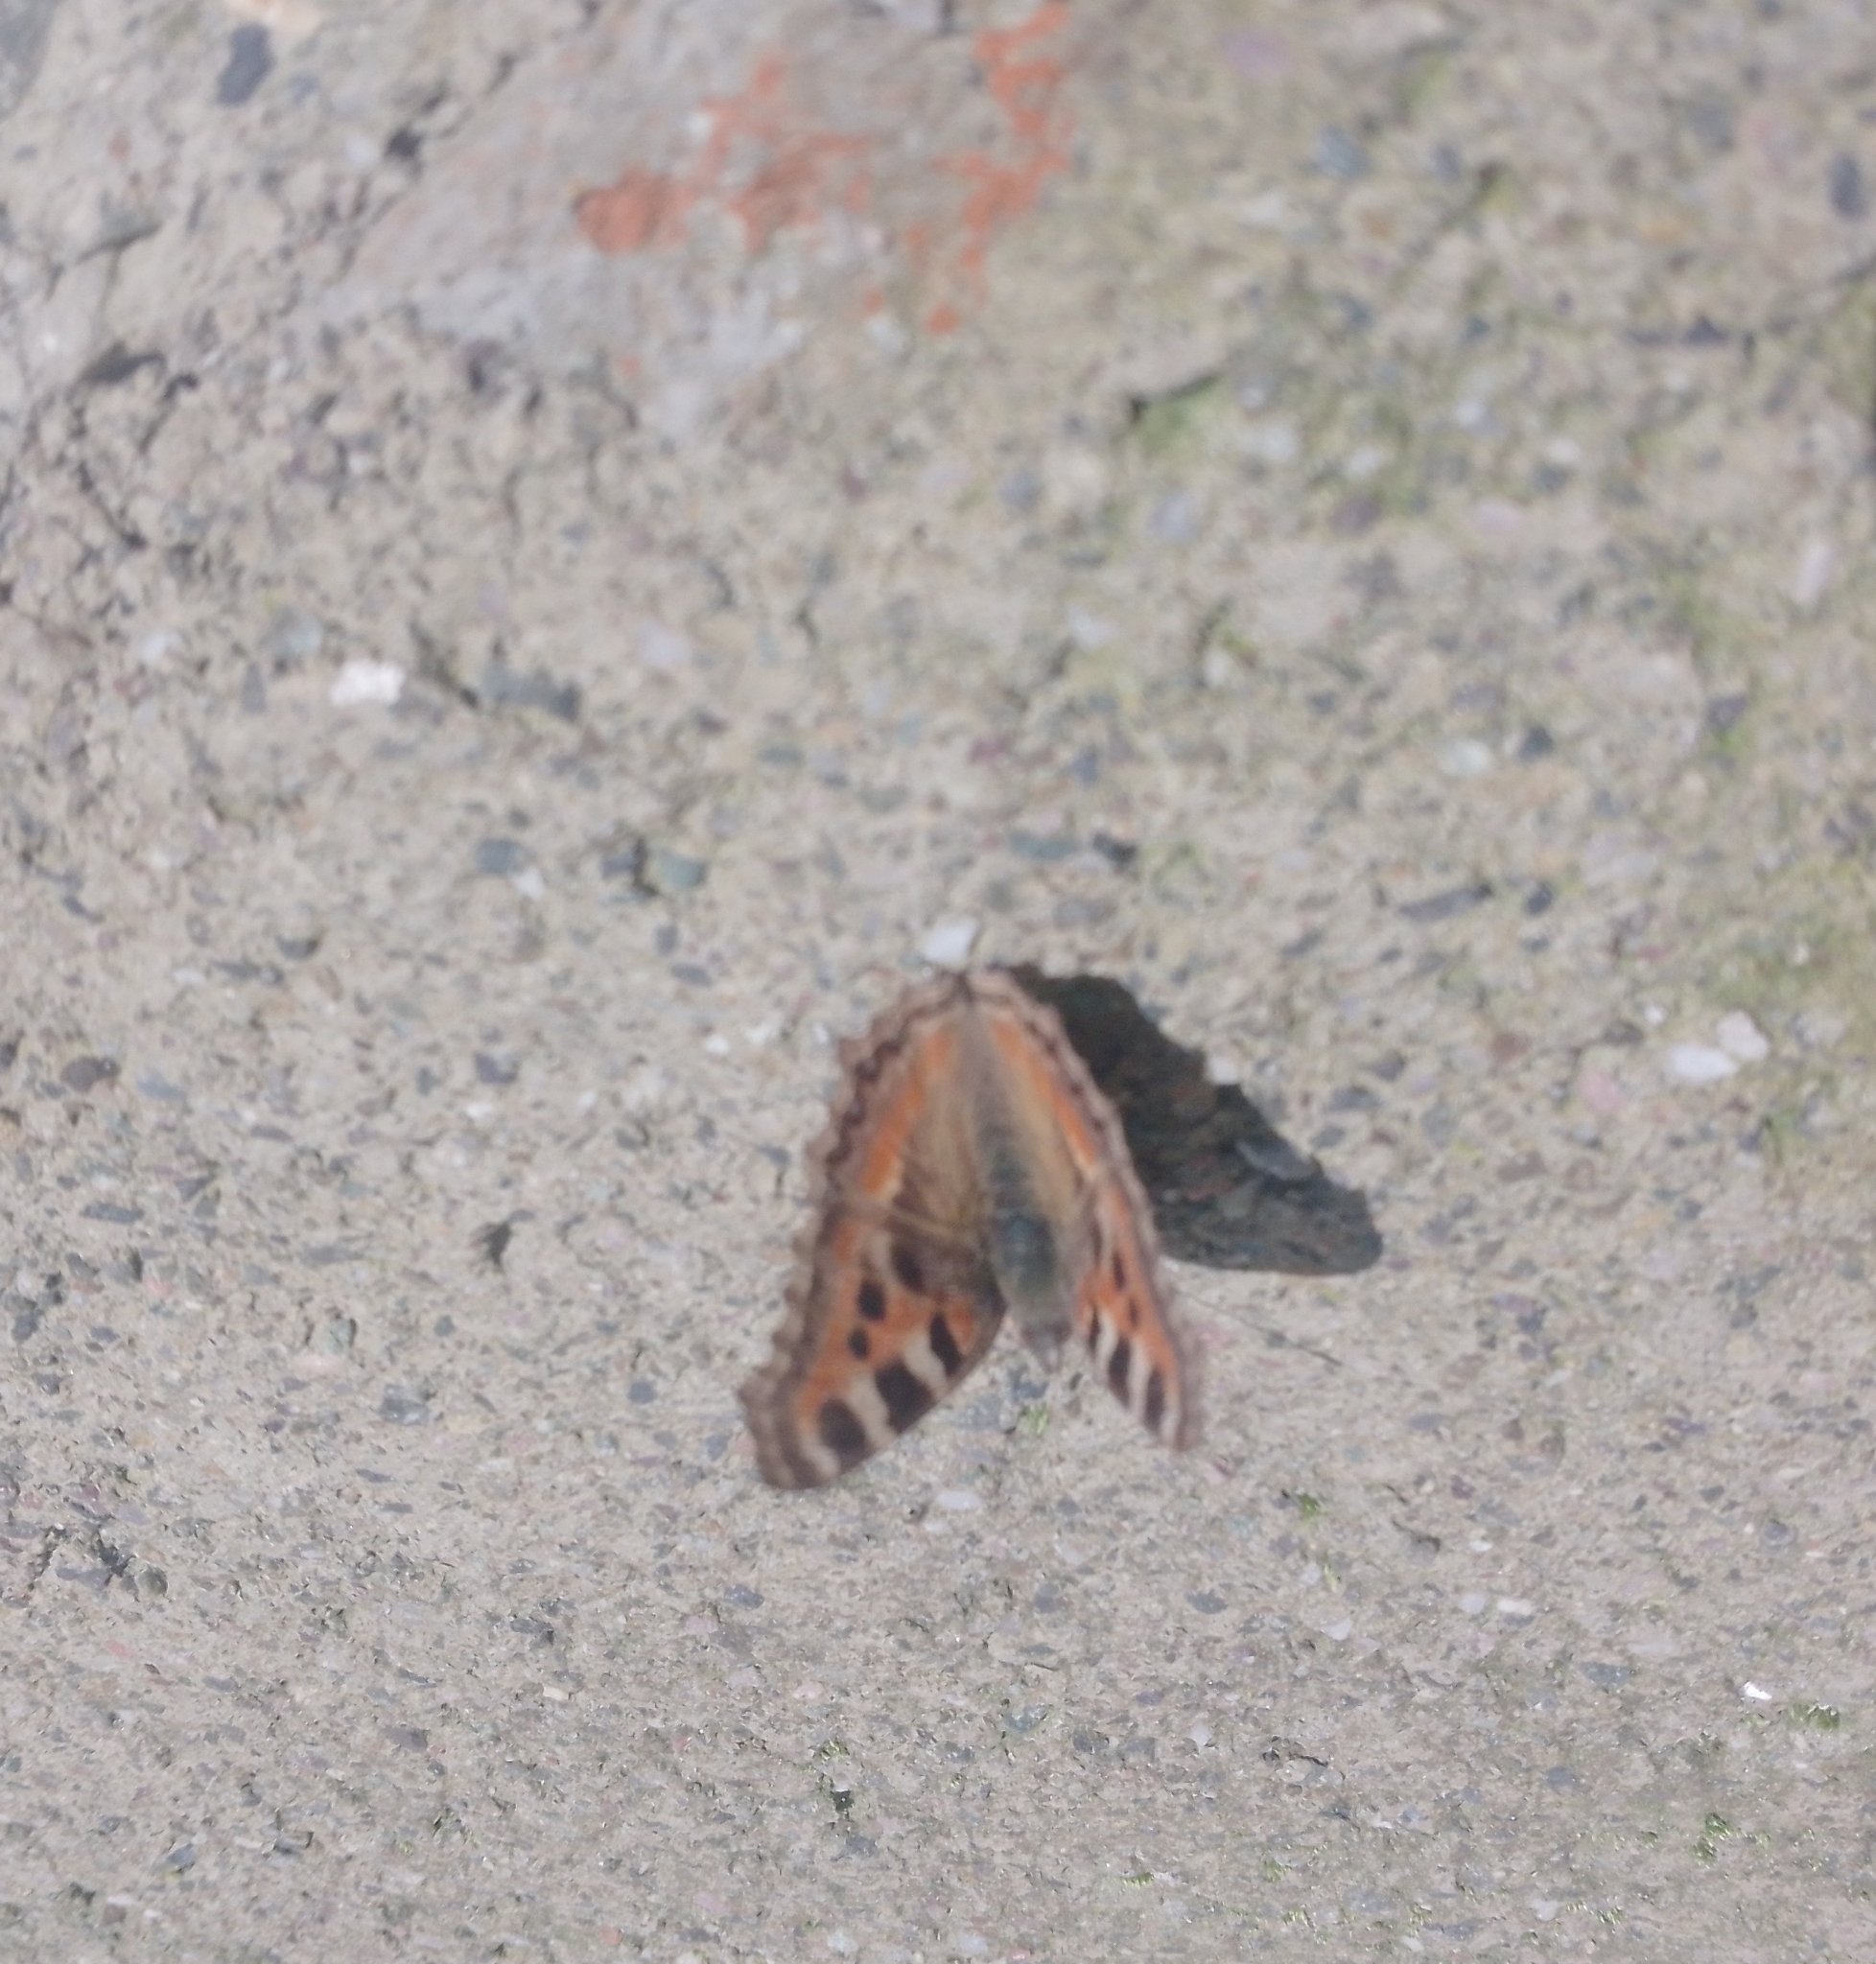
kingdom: Animalia
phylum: Arthropoda
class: Insecta
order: Lepidoptera
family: Nymphalidae
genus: Aglais
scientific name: Aglais caschmirensis
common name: Indian tortoiseshell
